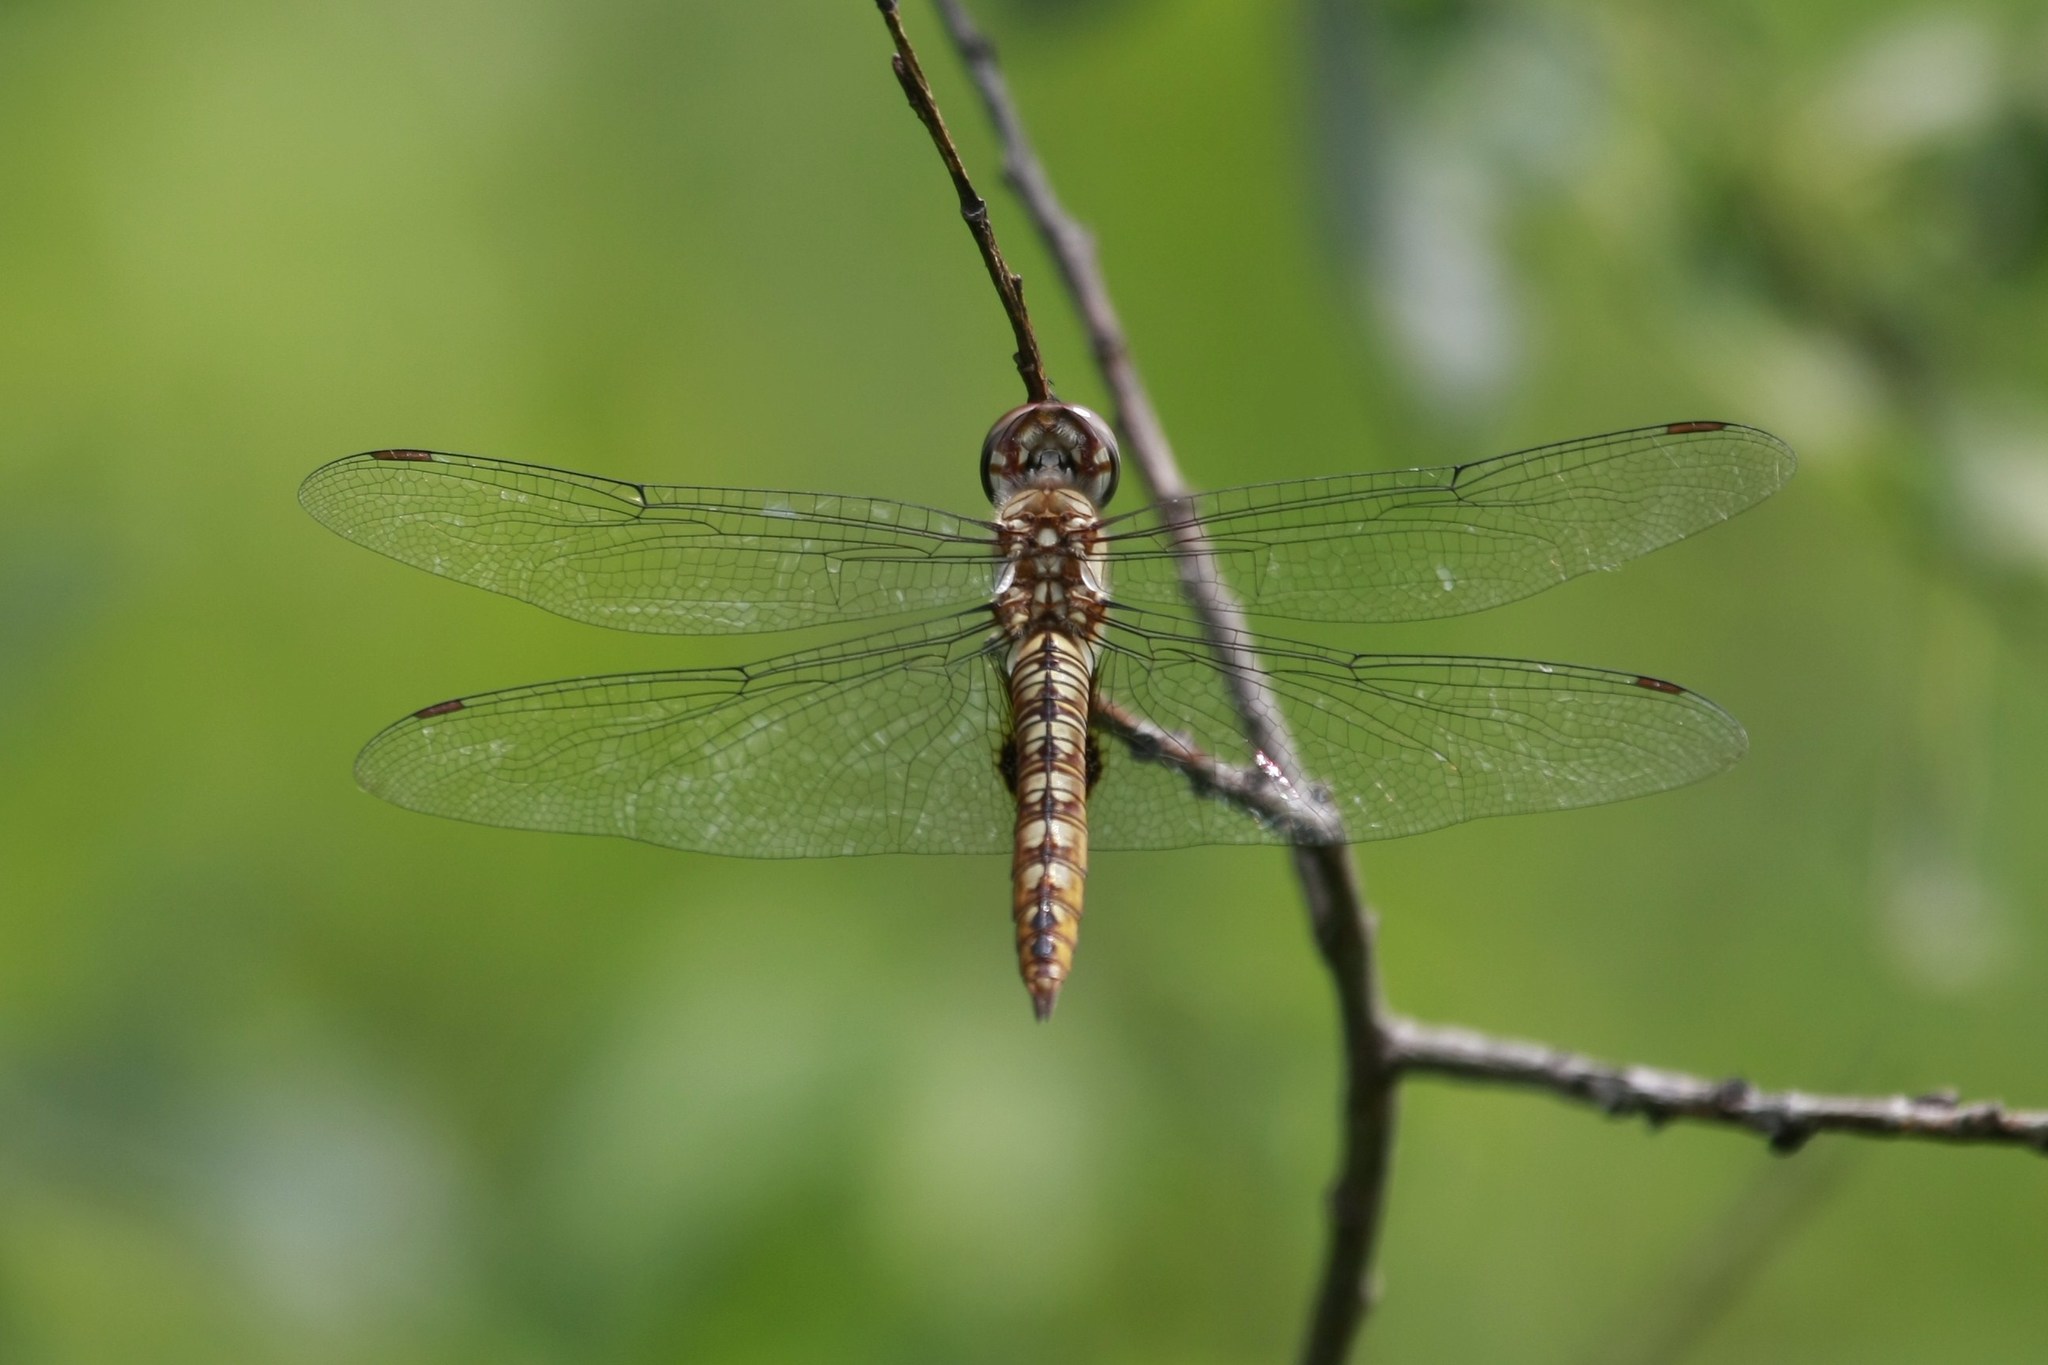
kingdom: Animalia
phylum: Arthropoda
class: Insecta
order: Odonata
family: Libellulidae
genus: Pantala
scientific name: Pantala hymenaea
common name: Spot-winged glider
